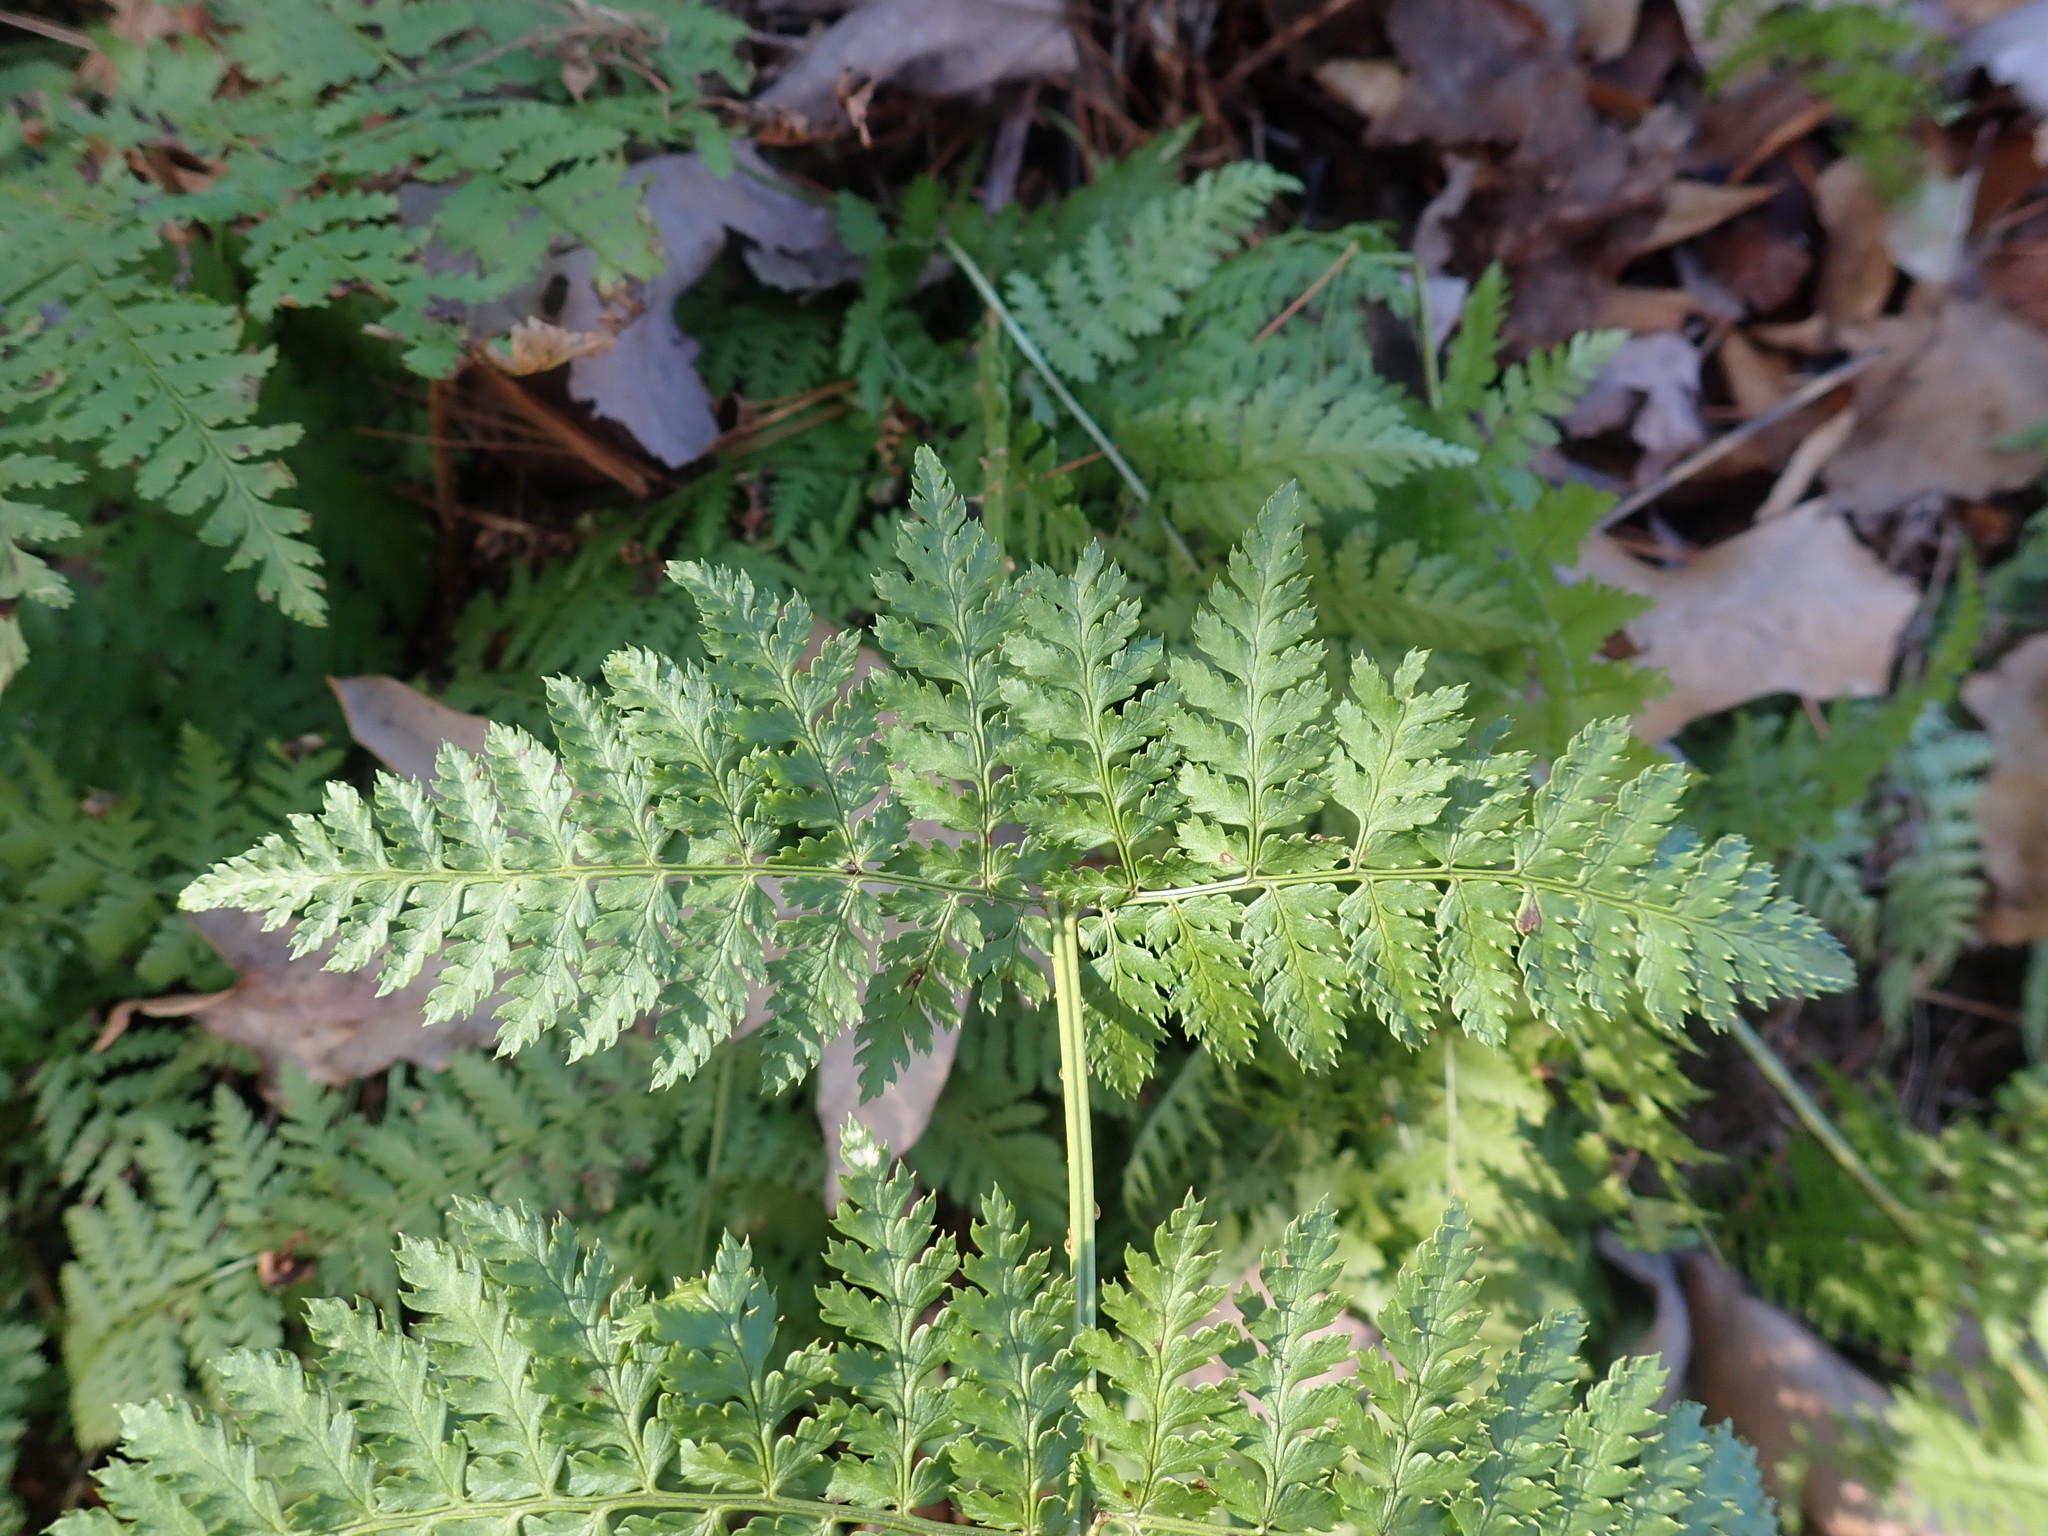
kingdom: Plantae
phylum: Tracheophyta
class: Polypodiopsida
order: Polypodiales
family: Dryopteridaceae
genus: Dryopteris
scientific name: Dryopteris intermedia
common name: Evergreen wood fern
